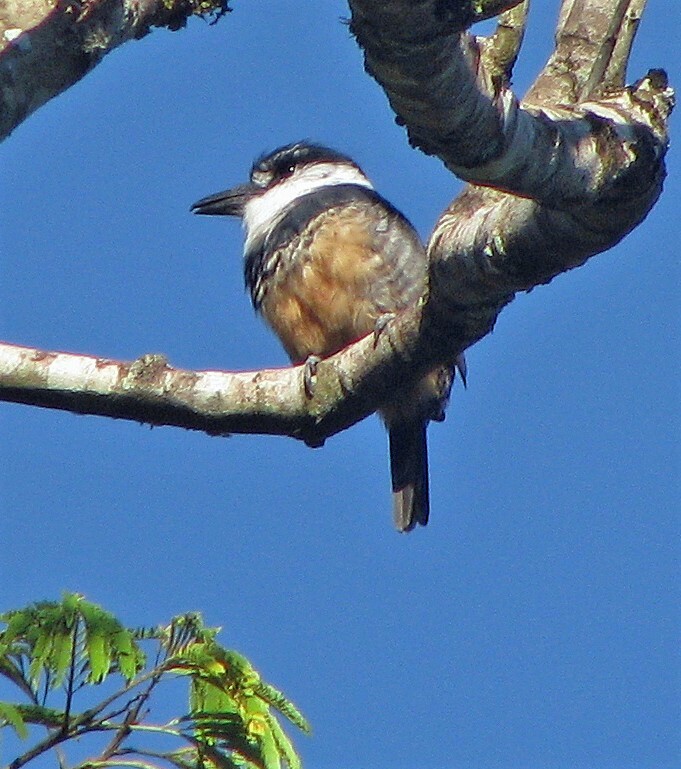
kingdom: Animalia
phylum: Chordata
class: Aves
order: Piciformes
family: Bucconidae
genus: Notharchus
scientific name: Notharchus swainsoni
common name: Buff-bellied puffbird
